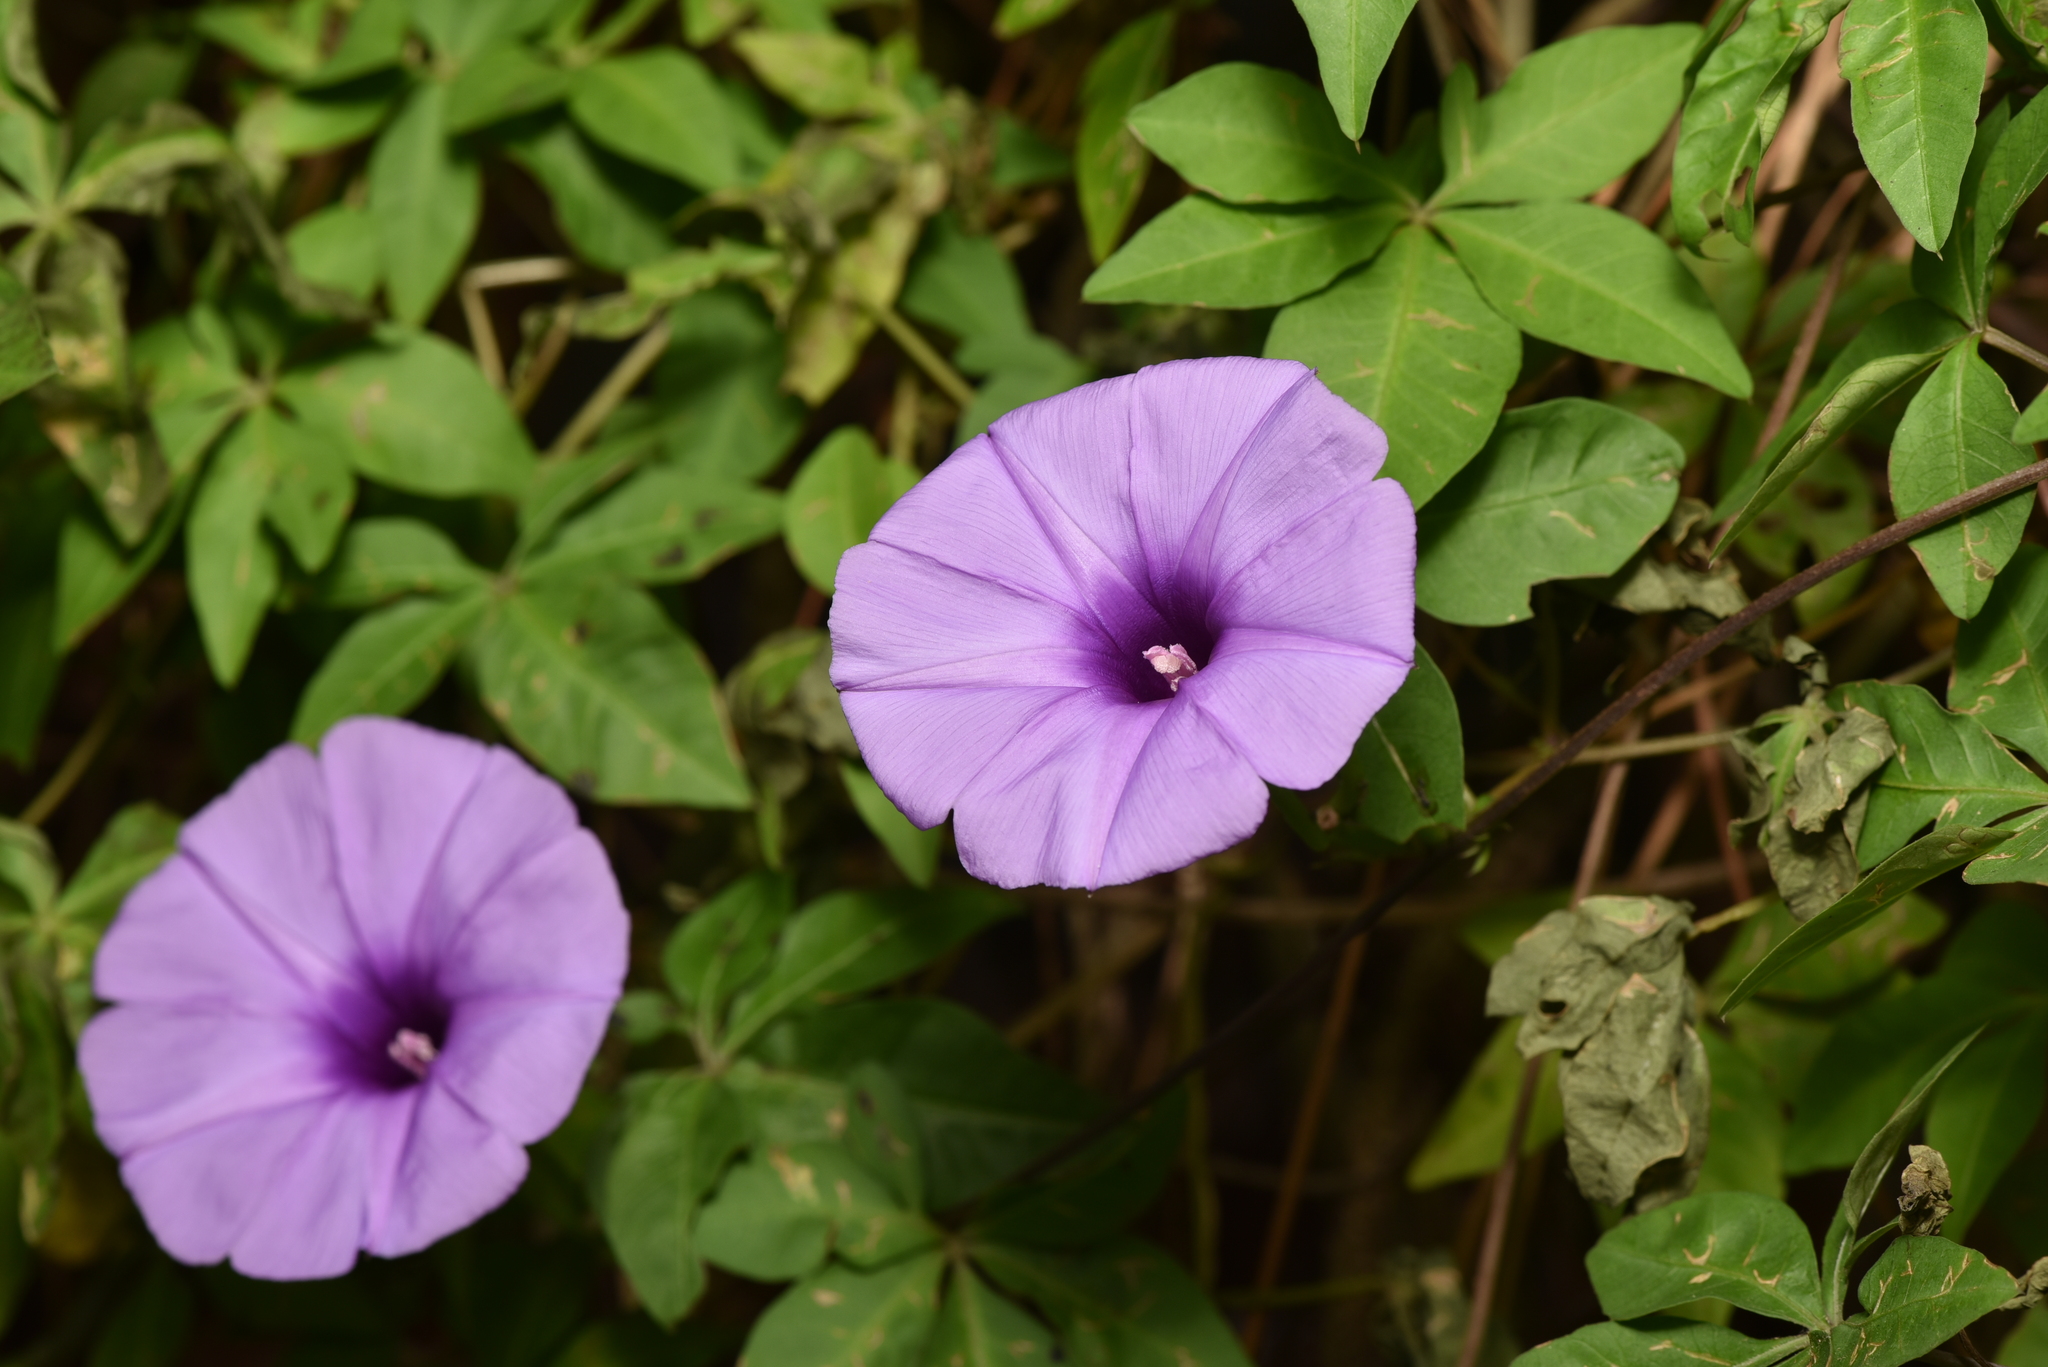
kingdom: Plantae
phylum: Tracheophyta
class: Magnoliopsida
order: Solanales
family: Convolvulaceae
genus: Ipomoea
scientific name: Ipomoea cairica
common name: Mile a minute vine
